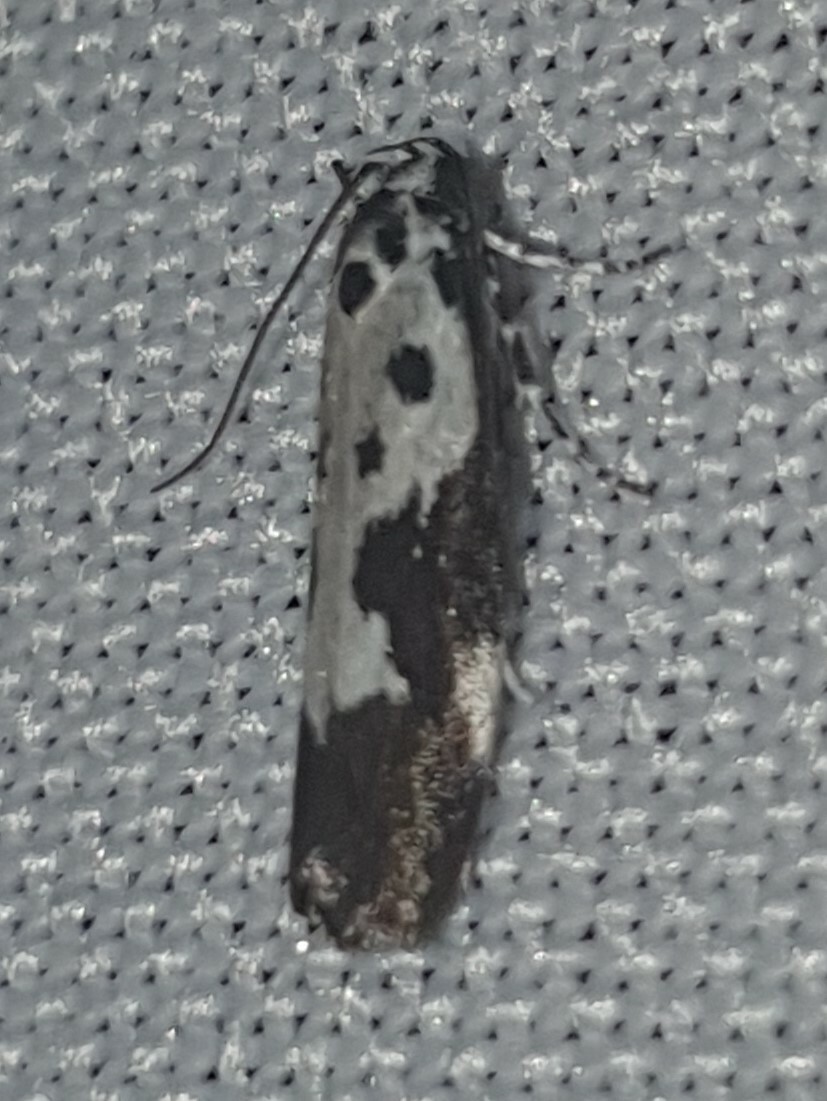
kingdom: Animalia
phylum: Arthropoda
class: Insecta
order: Lepidoptera
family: Ethmiidae
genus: Ethmia
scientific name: Ethmia quadrillella
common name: Comfrey ermel
